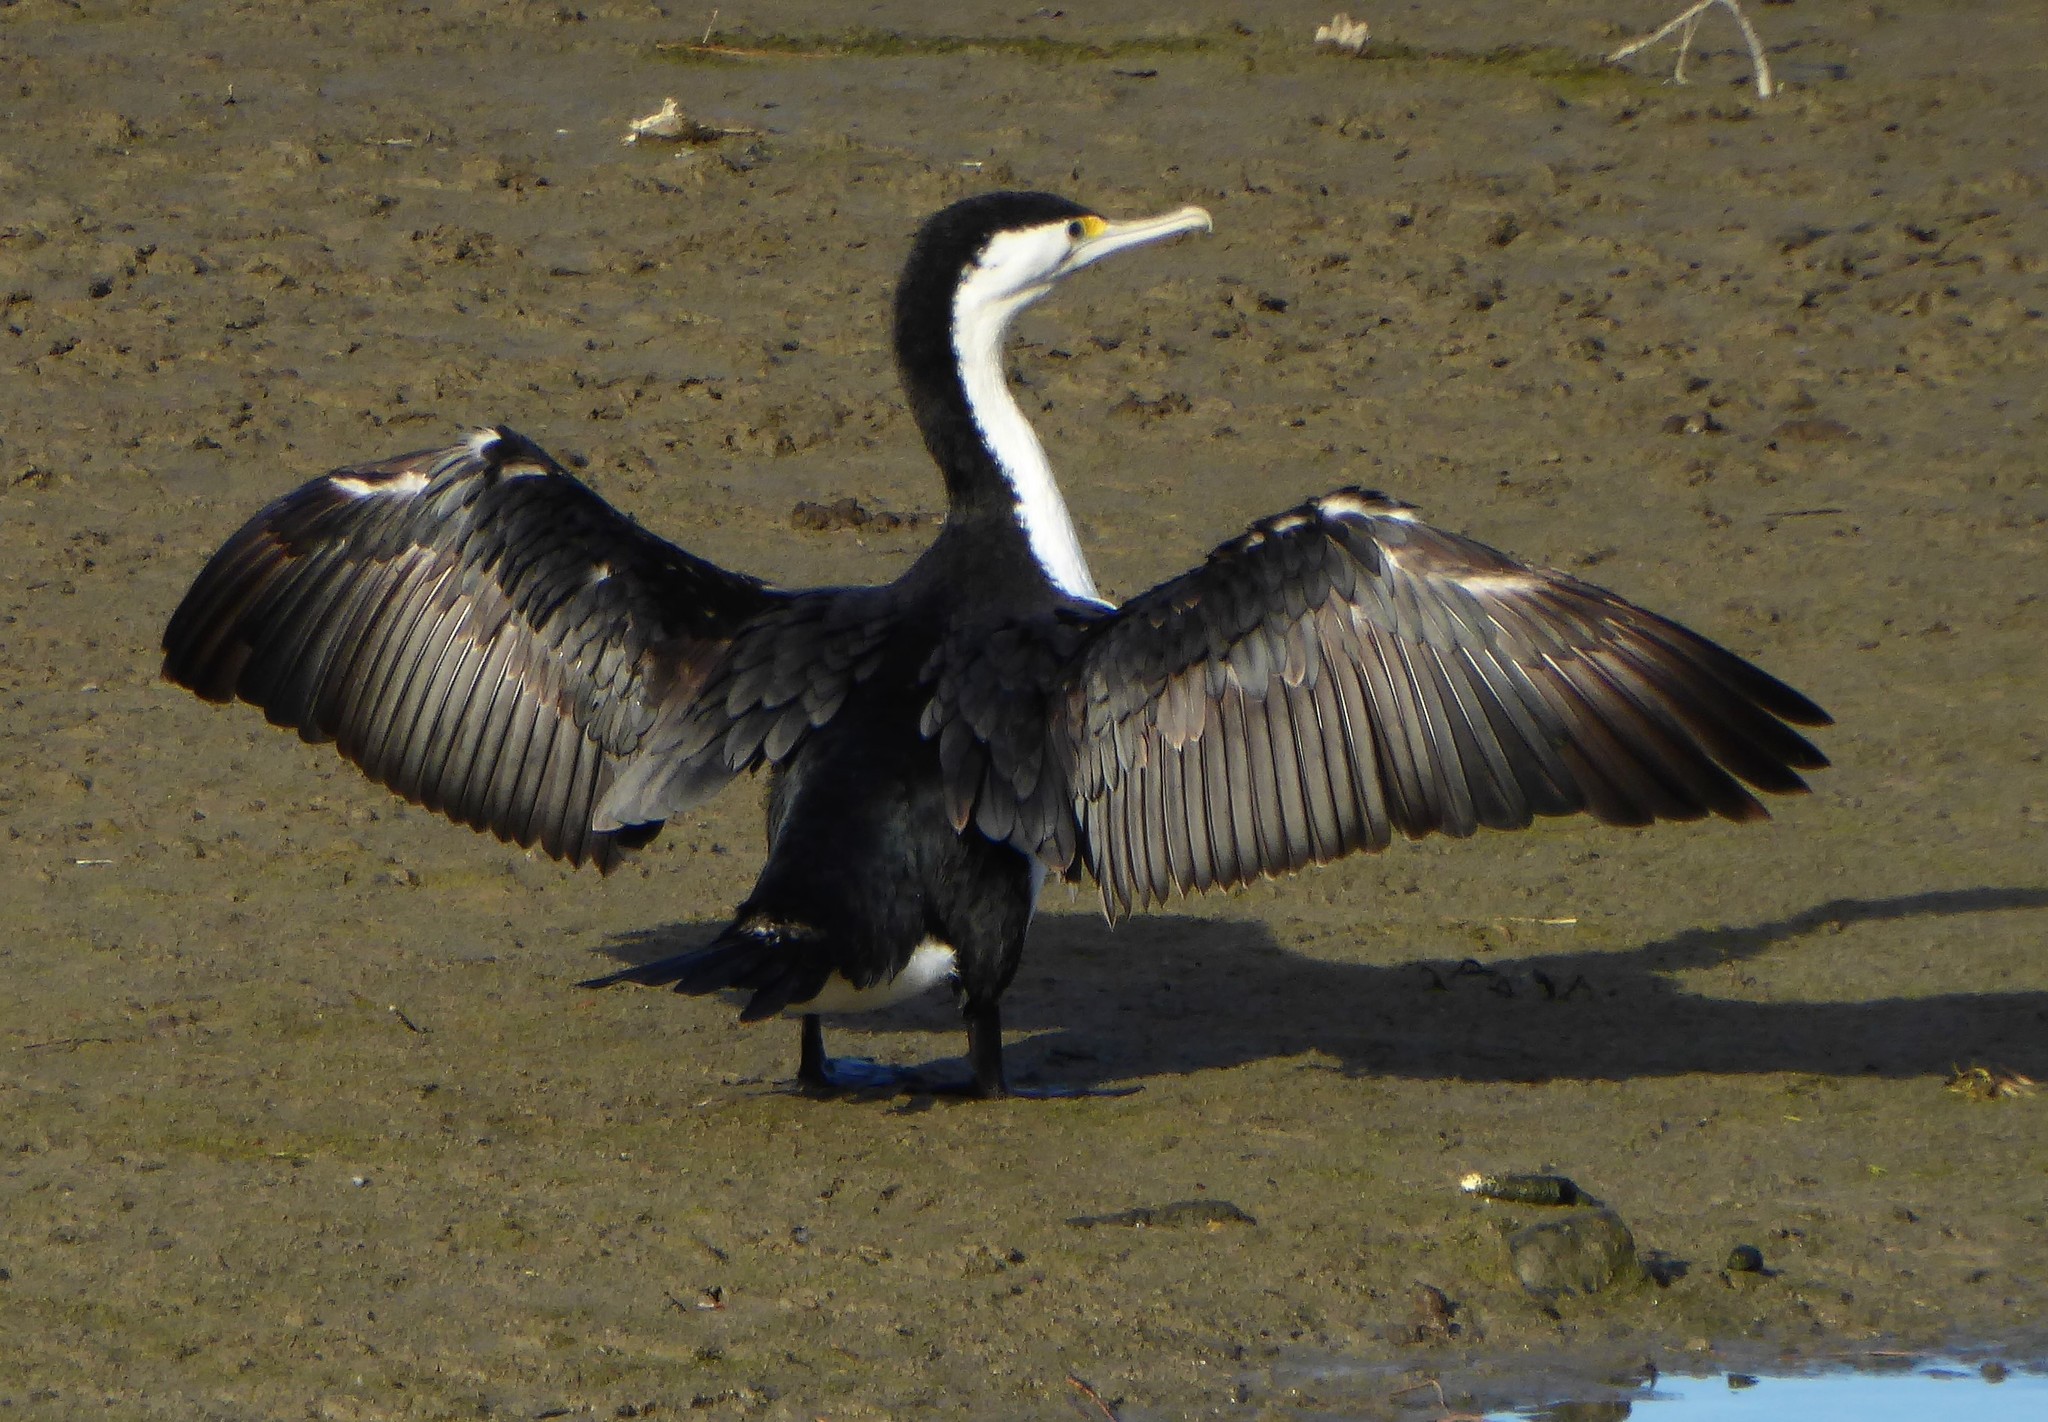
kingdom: Animalia
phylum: Chordata
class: Aves
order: Suliformes
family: Phalacrocoracidae
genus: Phalacrocorax
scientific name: Phalacrocorax varius
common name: Pied cormorant
